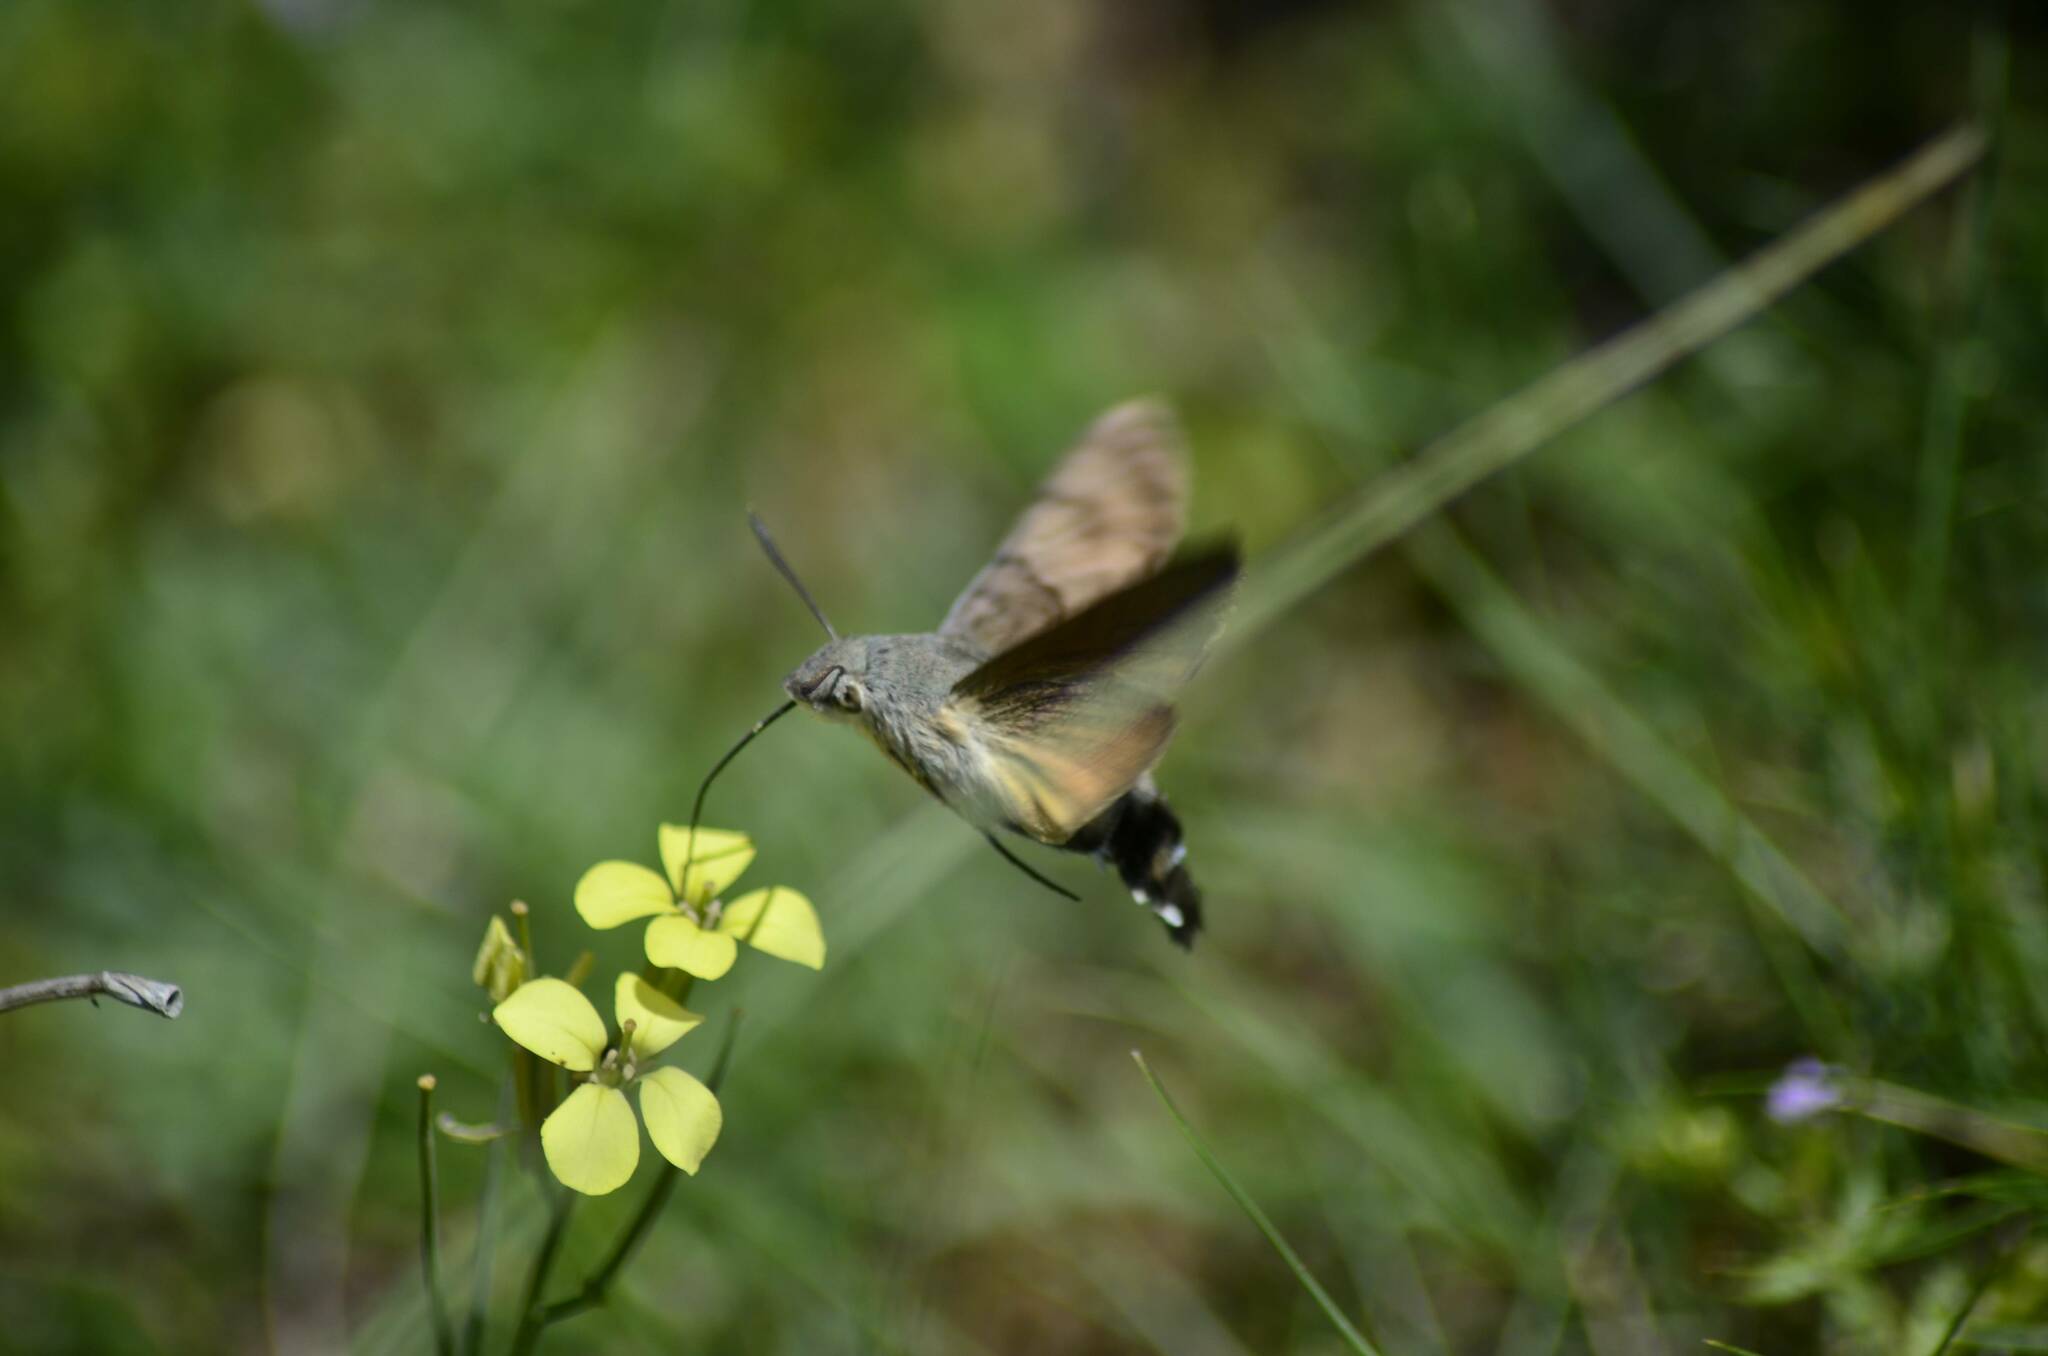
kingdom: Animalia
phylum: Arthropoda
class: Insecta
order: Lepidoptera
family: Sphingidae
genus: Macroglossum
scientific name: Macroglossum stellatarum
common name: Humming-bird hawk-moth
